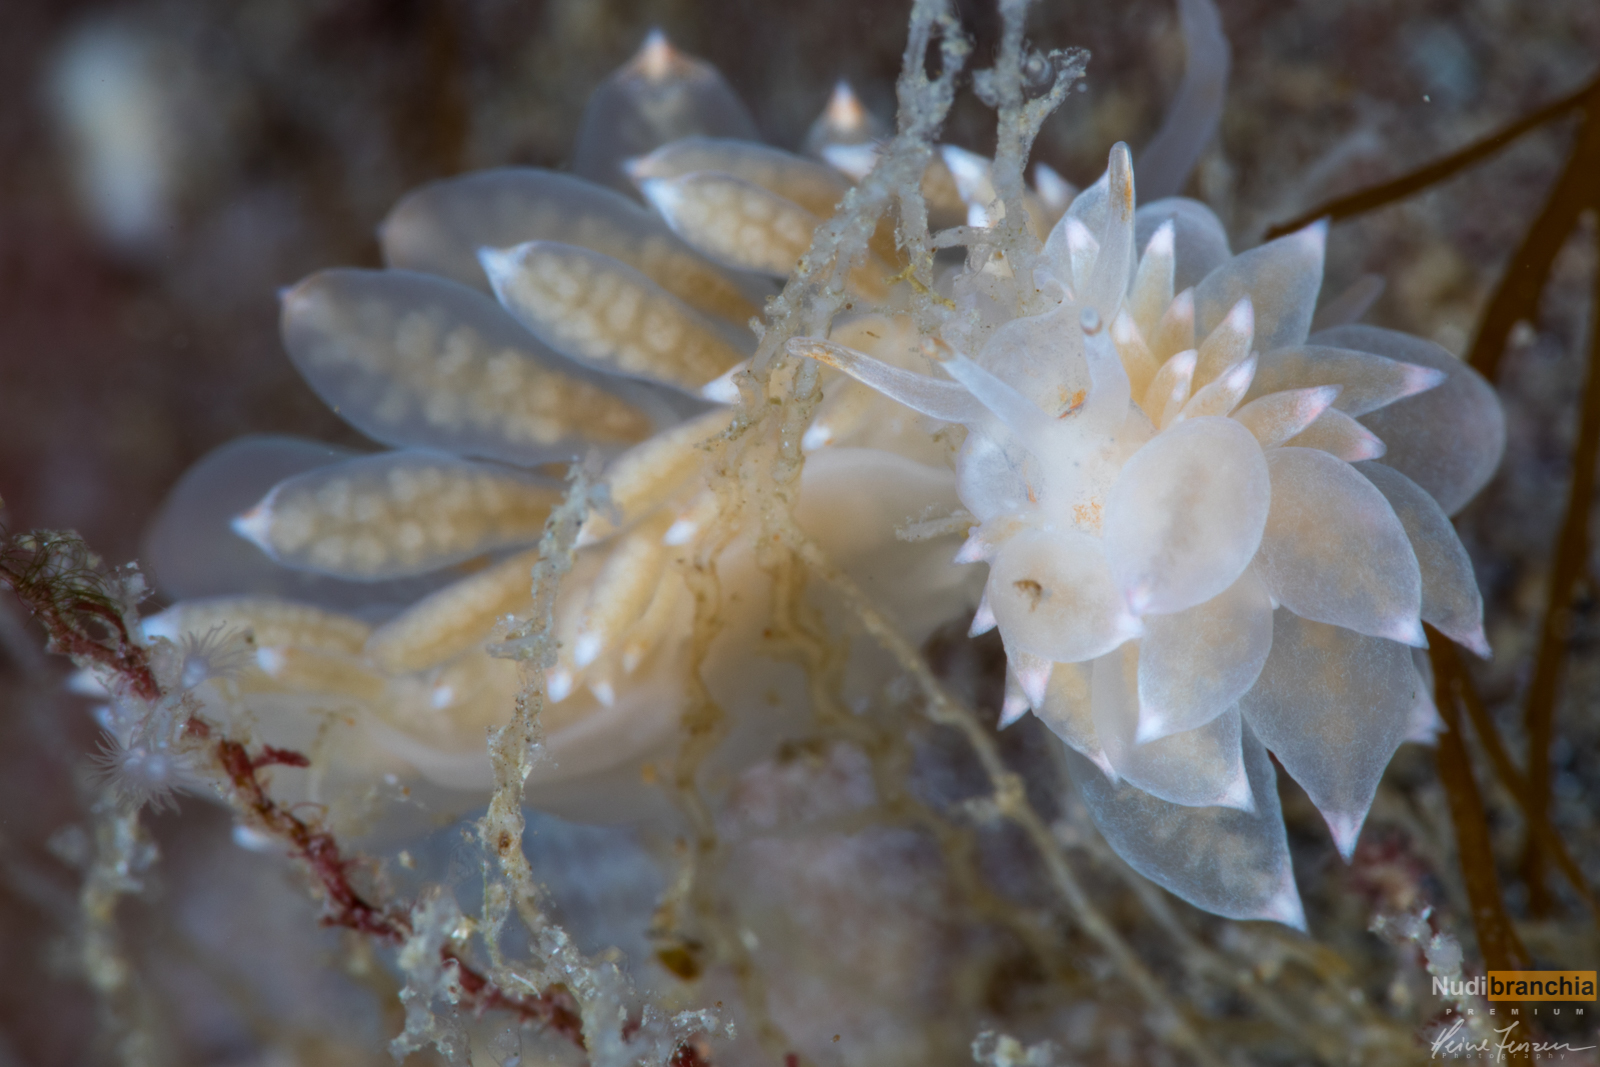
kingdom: Animalia
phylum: Mollusca
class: Gastropoda
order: Nudibranchia
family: Eubranchidae
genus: Amphorina
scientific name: Amphorina linensis
